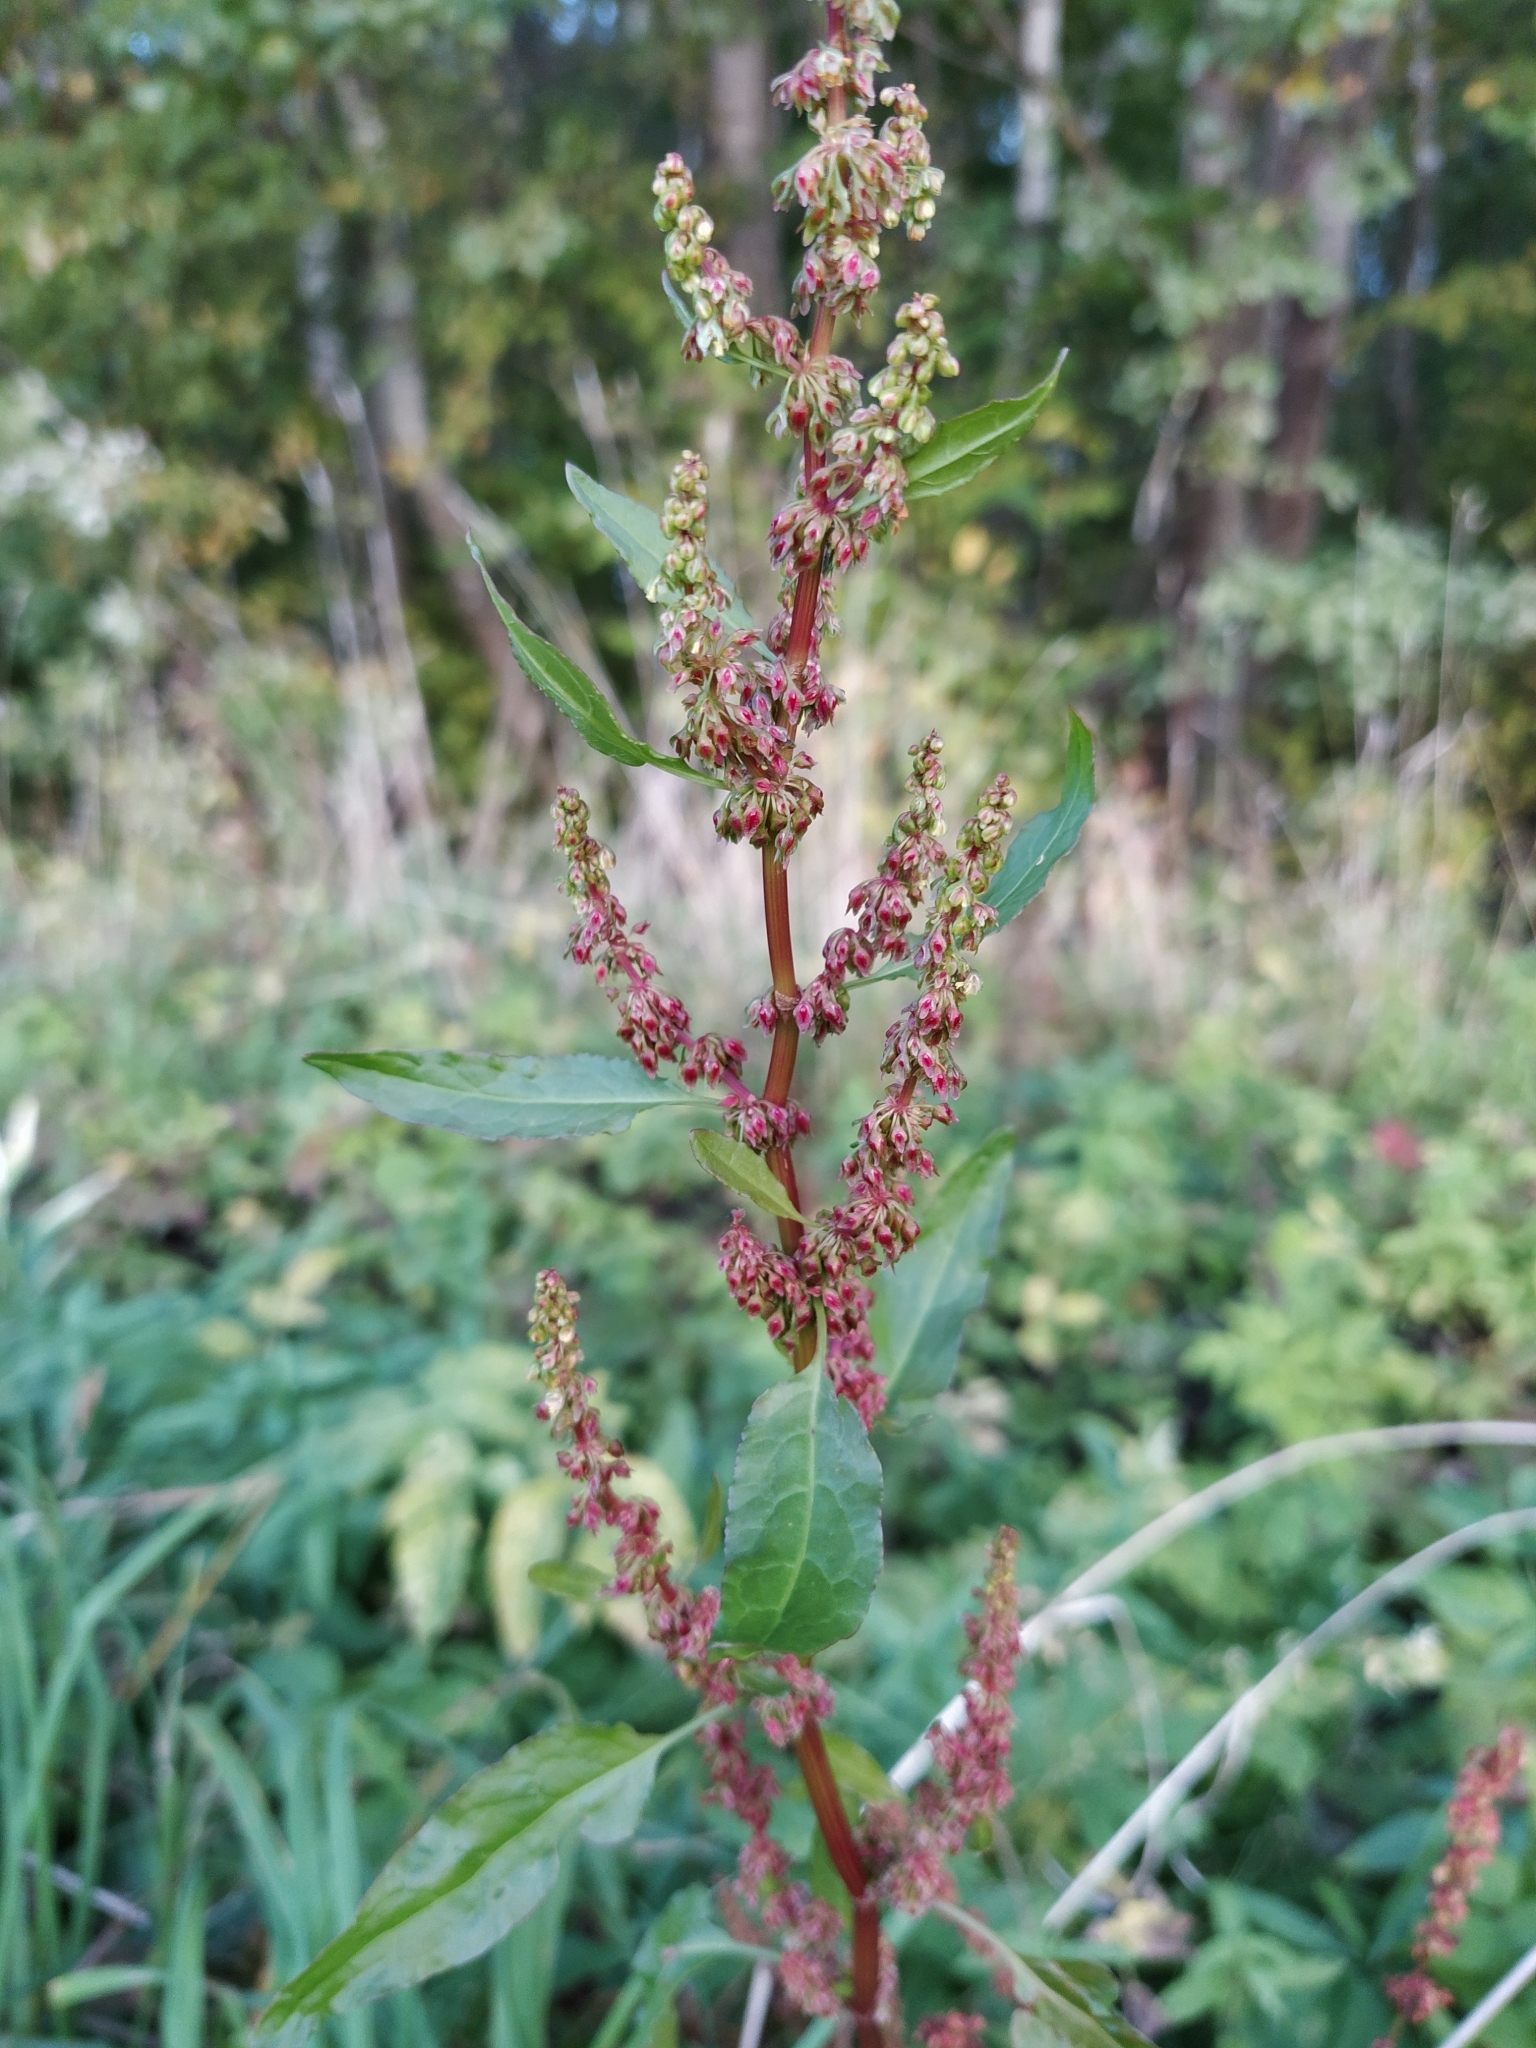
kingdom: Plantae
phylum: Tracheophyta
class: Magnoliopsida
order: Caryophyllales
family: Polygonaceae
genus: Rumex
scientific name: Rumex obtusifolius
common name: Bitter dock
